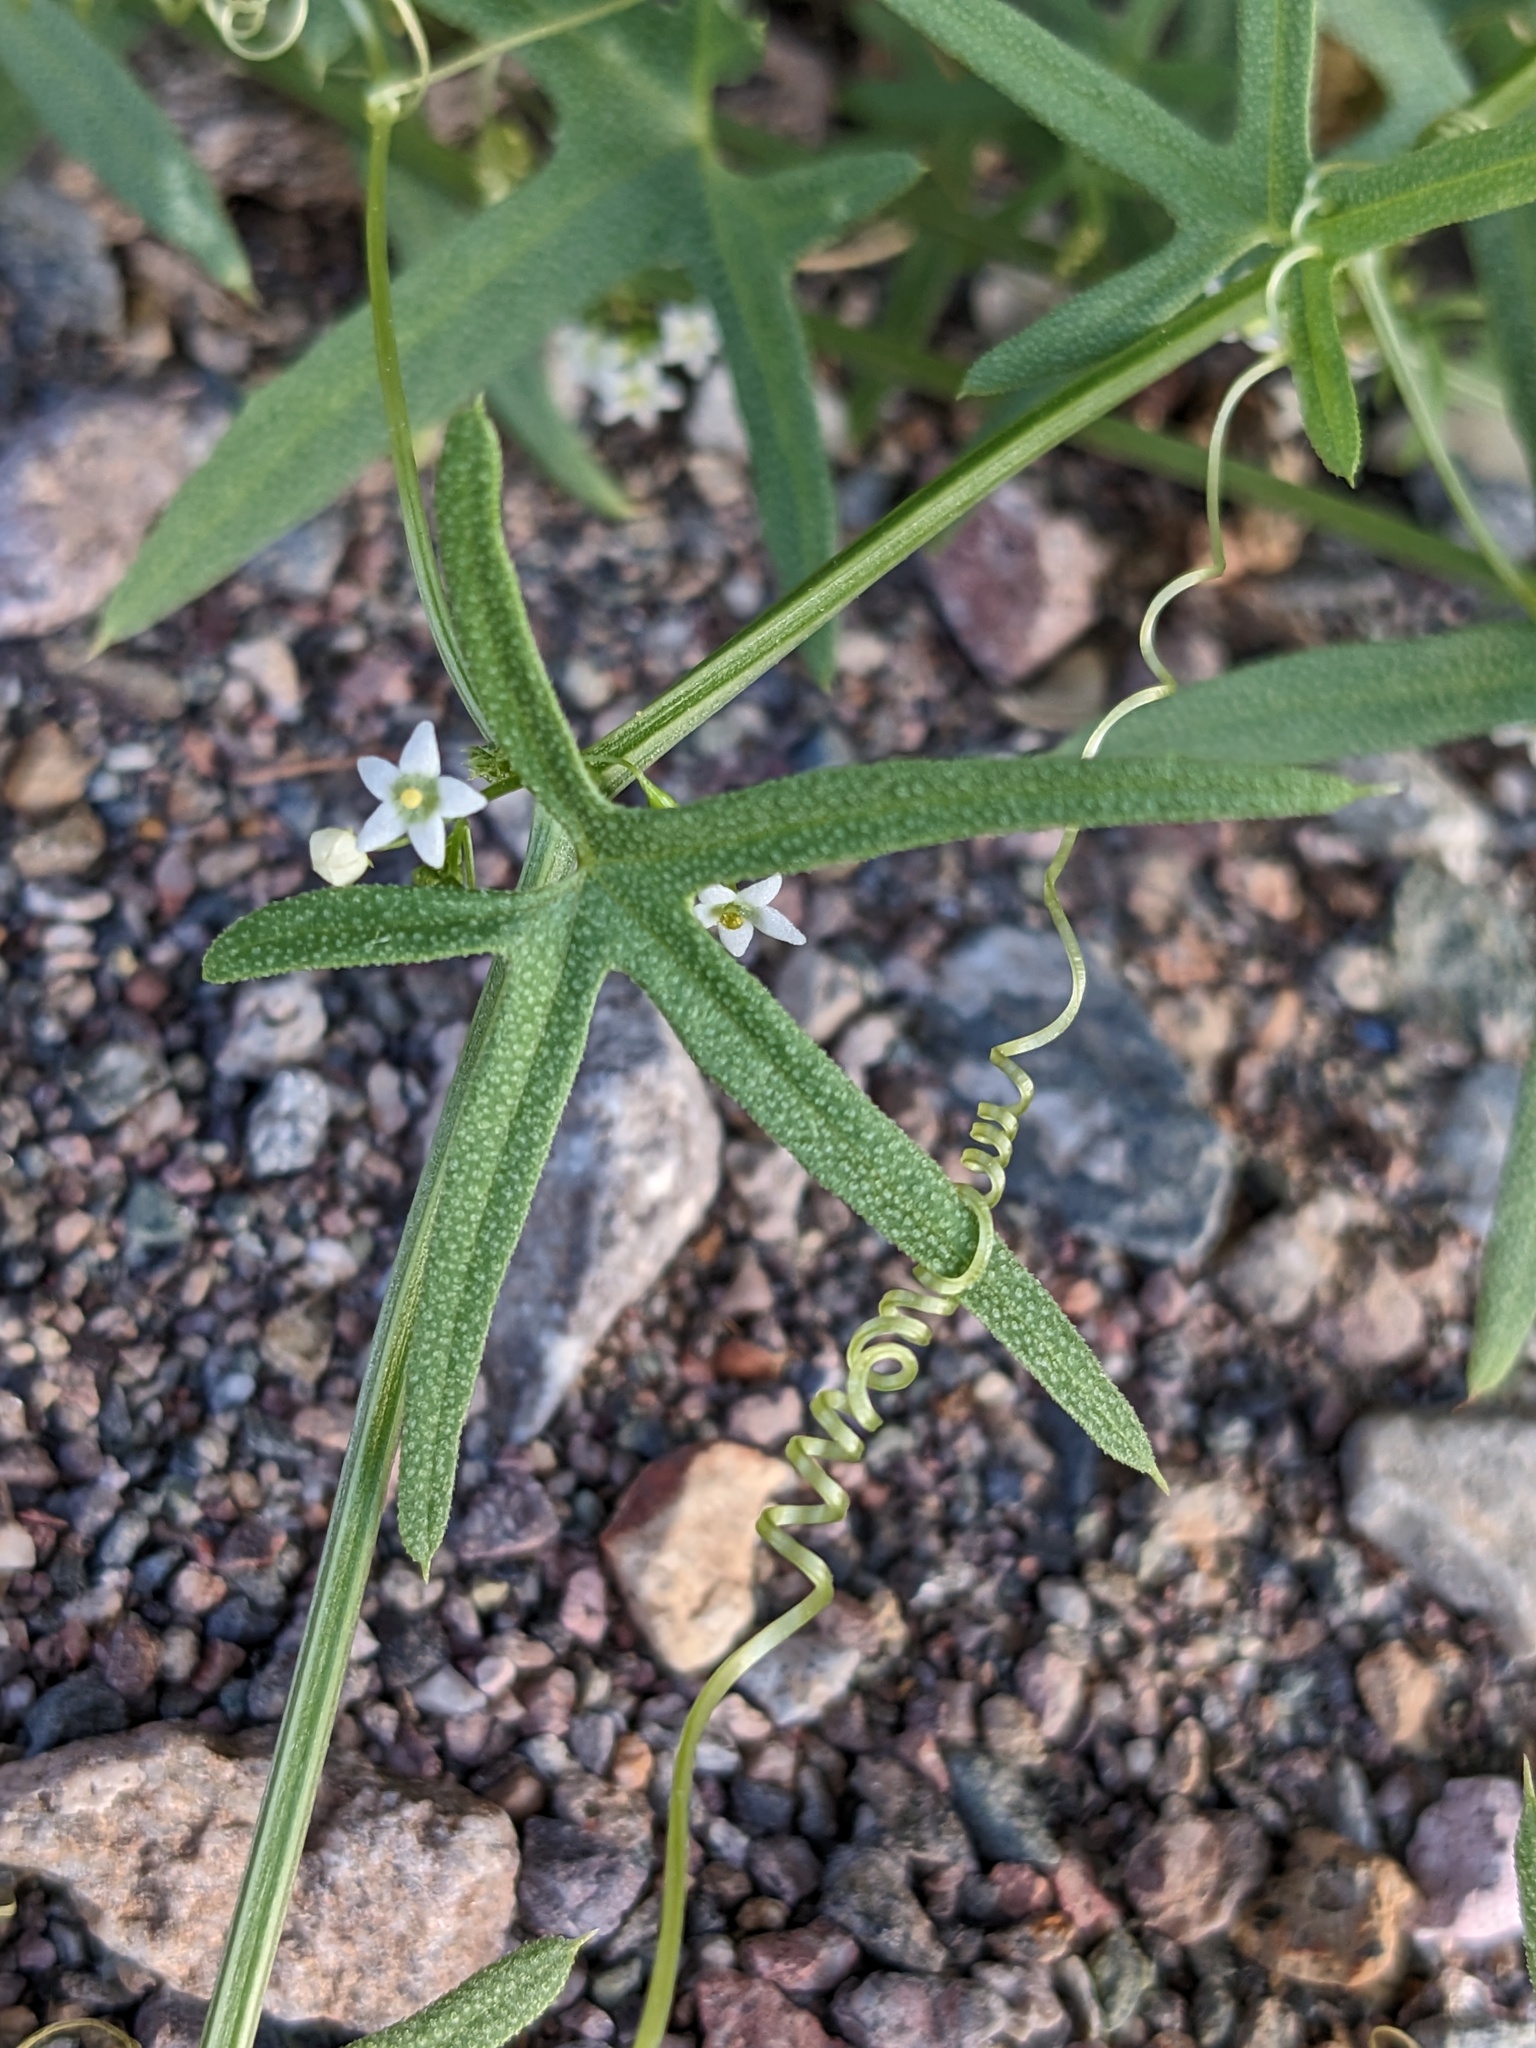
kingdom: Plantae
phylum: Tracheophyta
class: Magnoliopsida
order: Cucurbitales
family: Cucurbitaceae
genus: Echinopepon
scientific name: Echinopepon bigelovii
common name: Desert starvine
